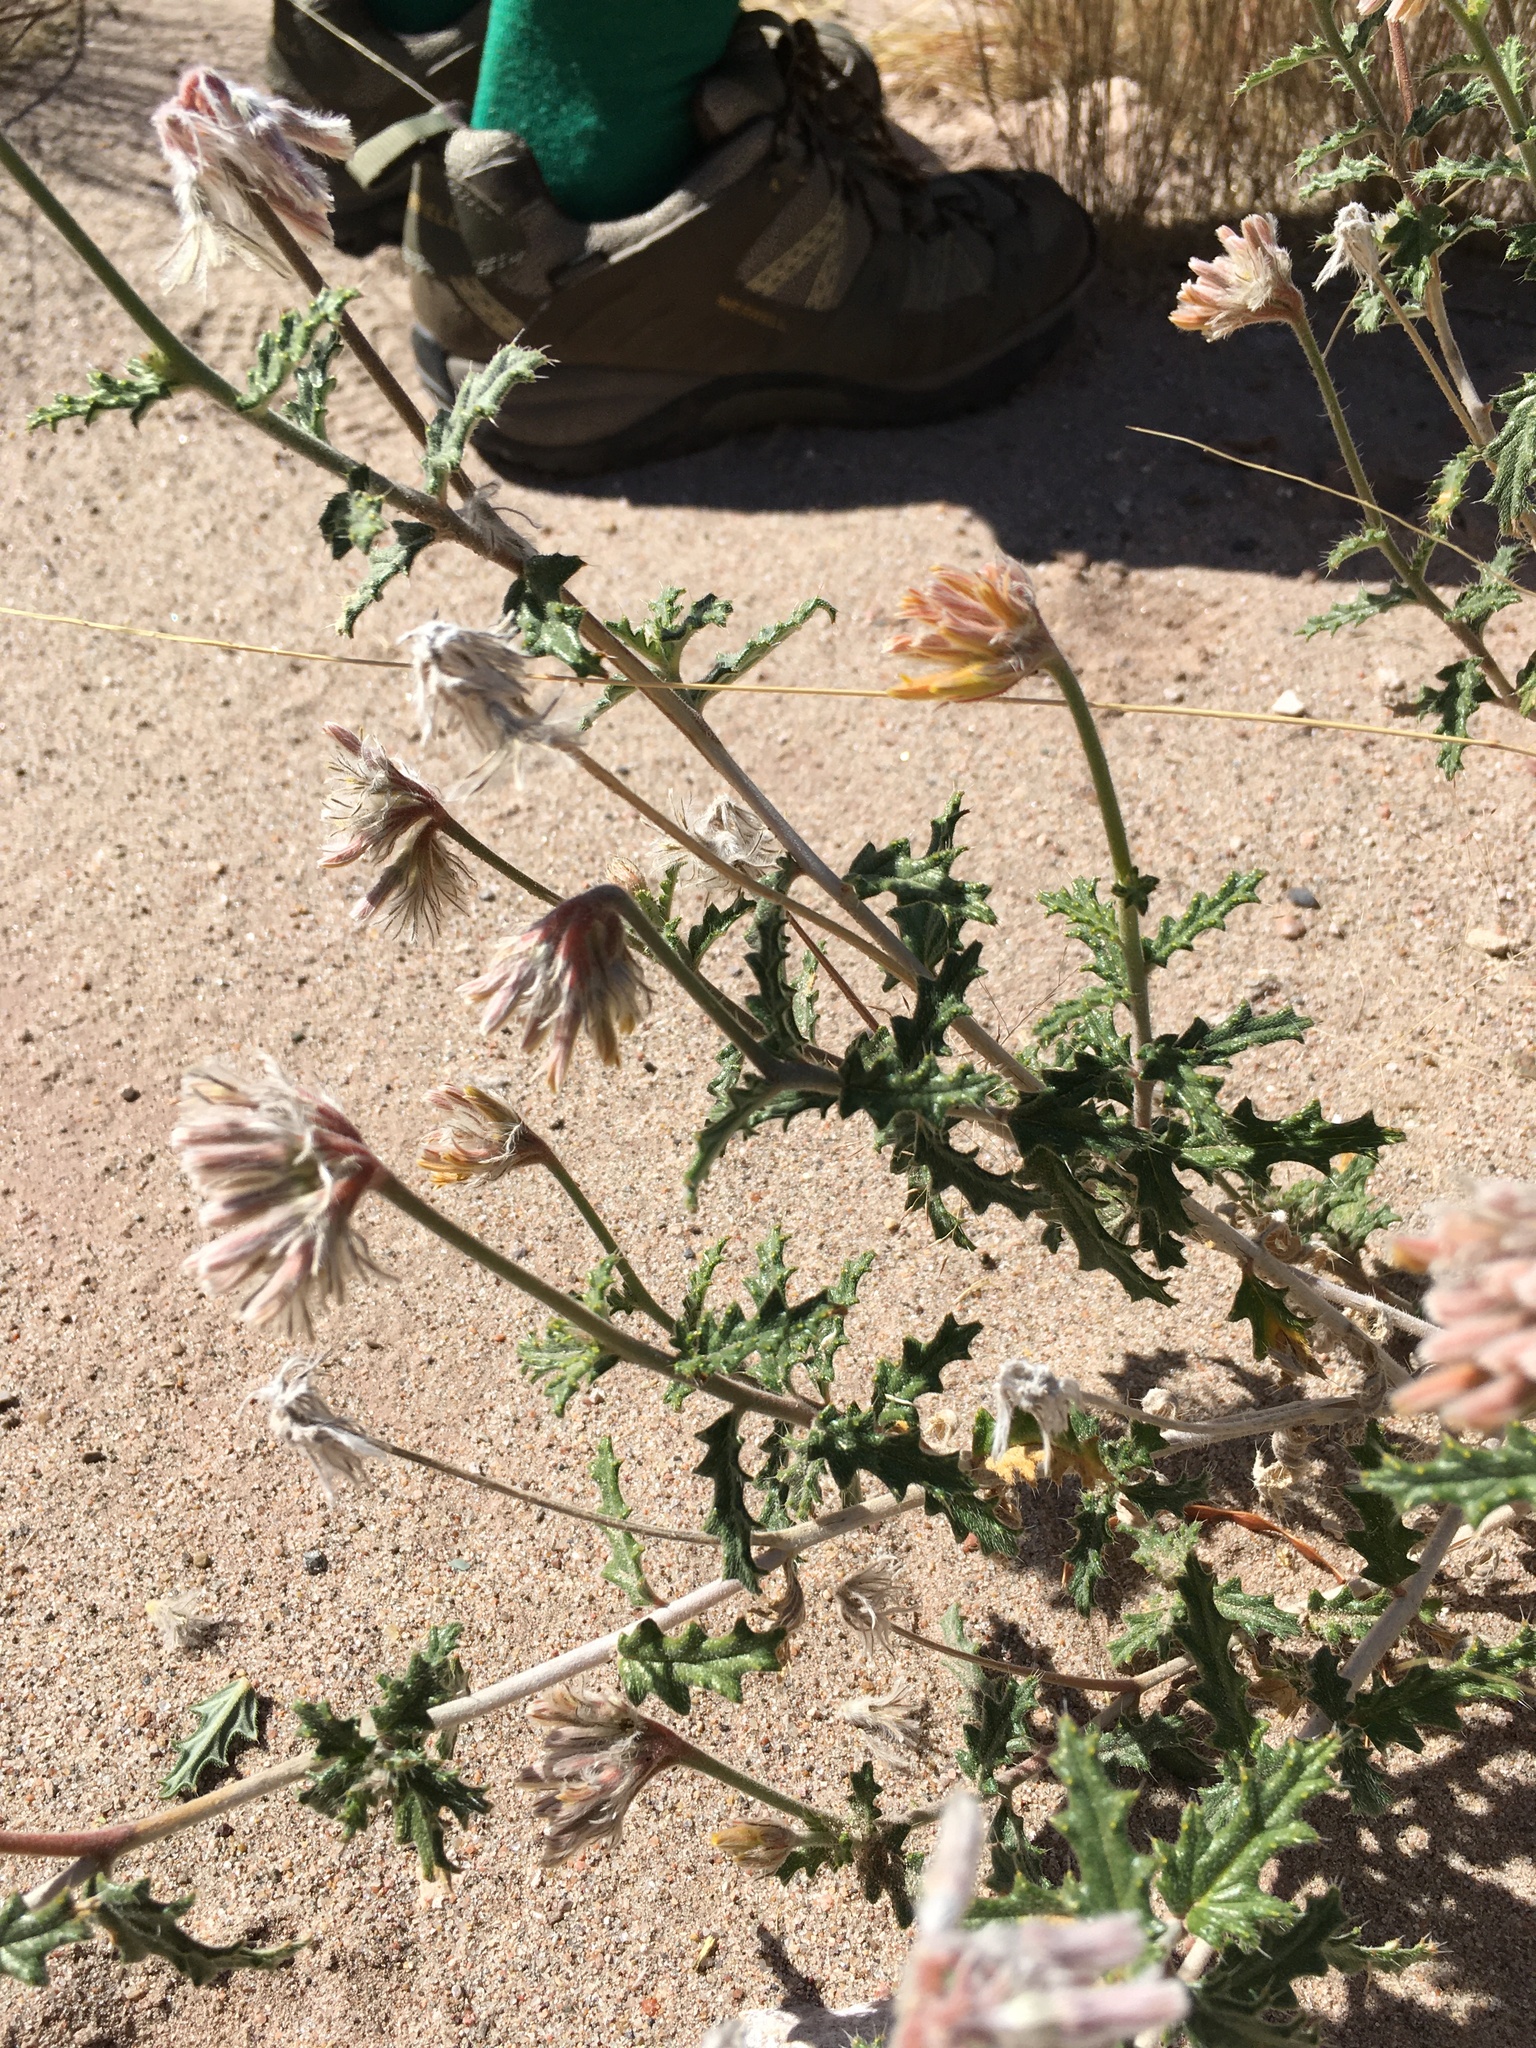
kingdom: Plantae
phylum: Tracheophyta
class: Magnoliopsida
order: Cornales
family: Loasaceae
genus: Cevallia
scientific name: Cevallia sinuata
